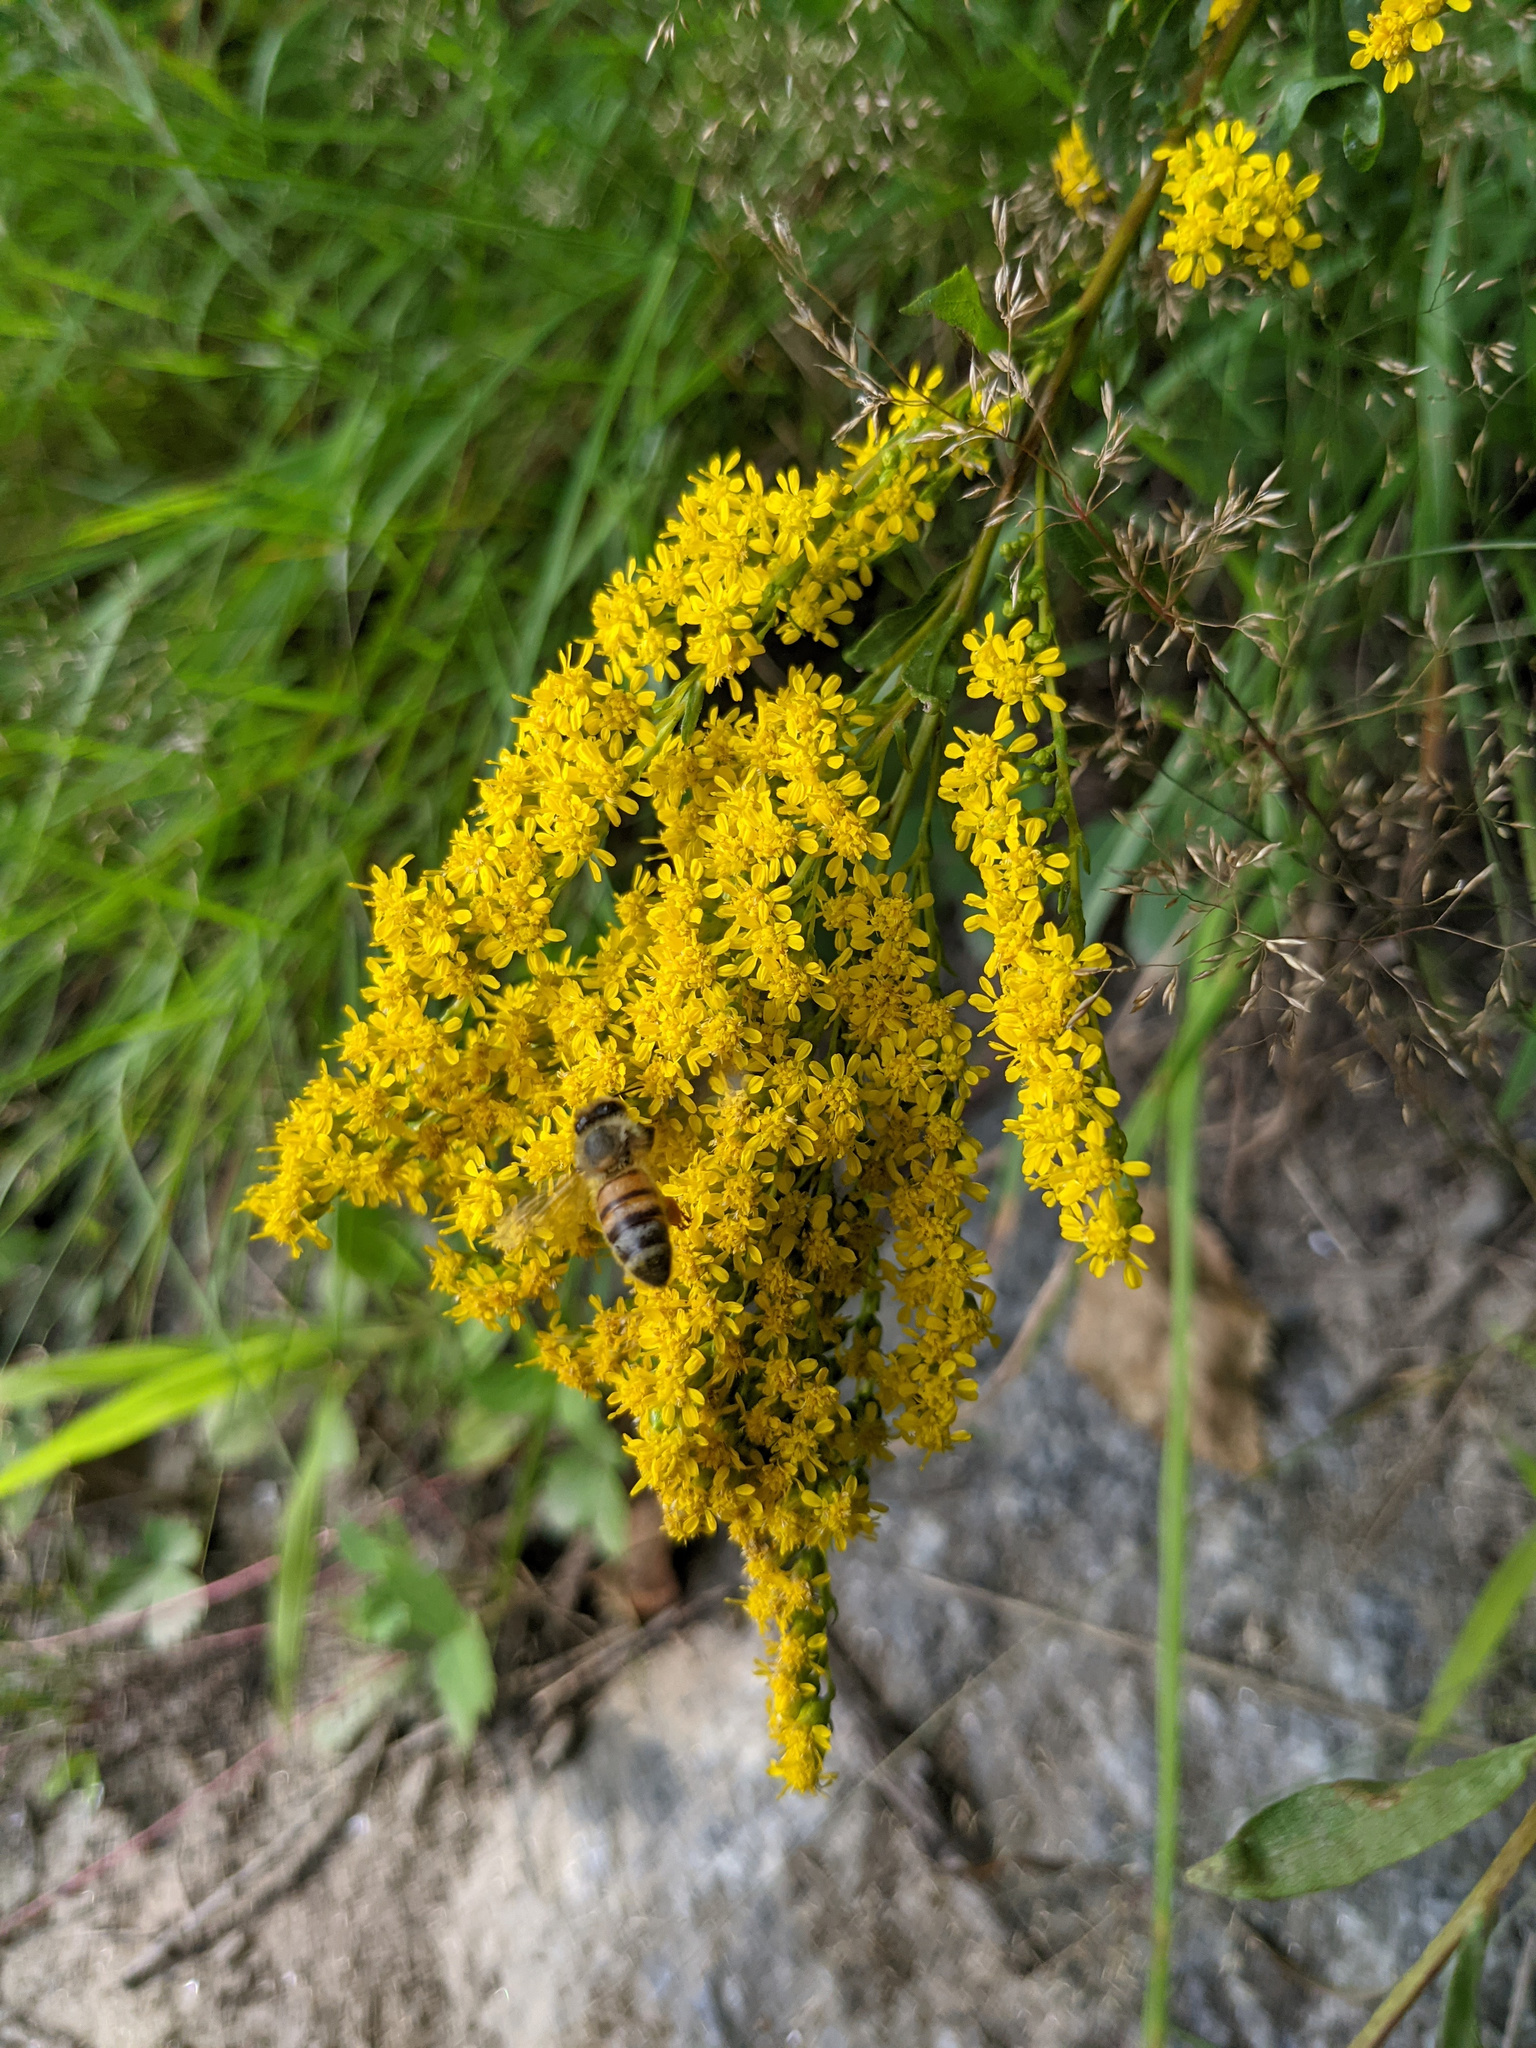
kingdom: Animalia
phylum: Arthropoda
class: Insecta
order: Hymenoptera
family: Apidae
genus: Apis
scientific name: Apis mellifera
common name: Honey bee
